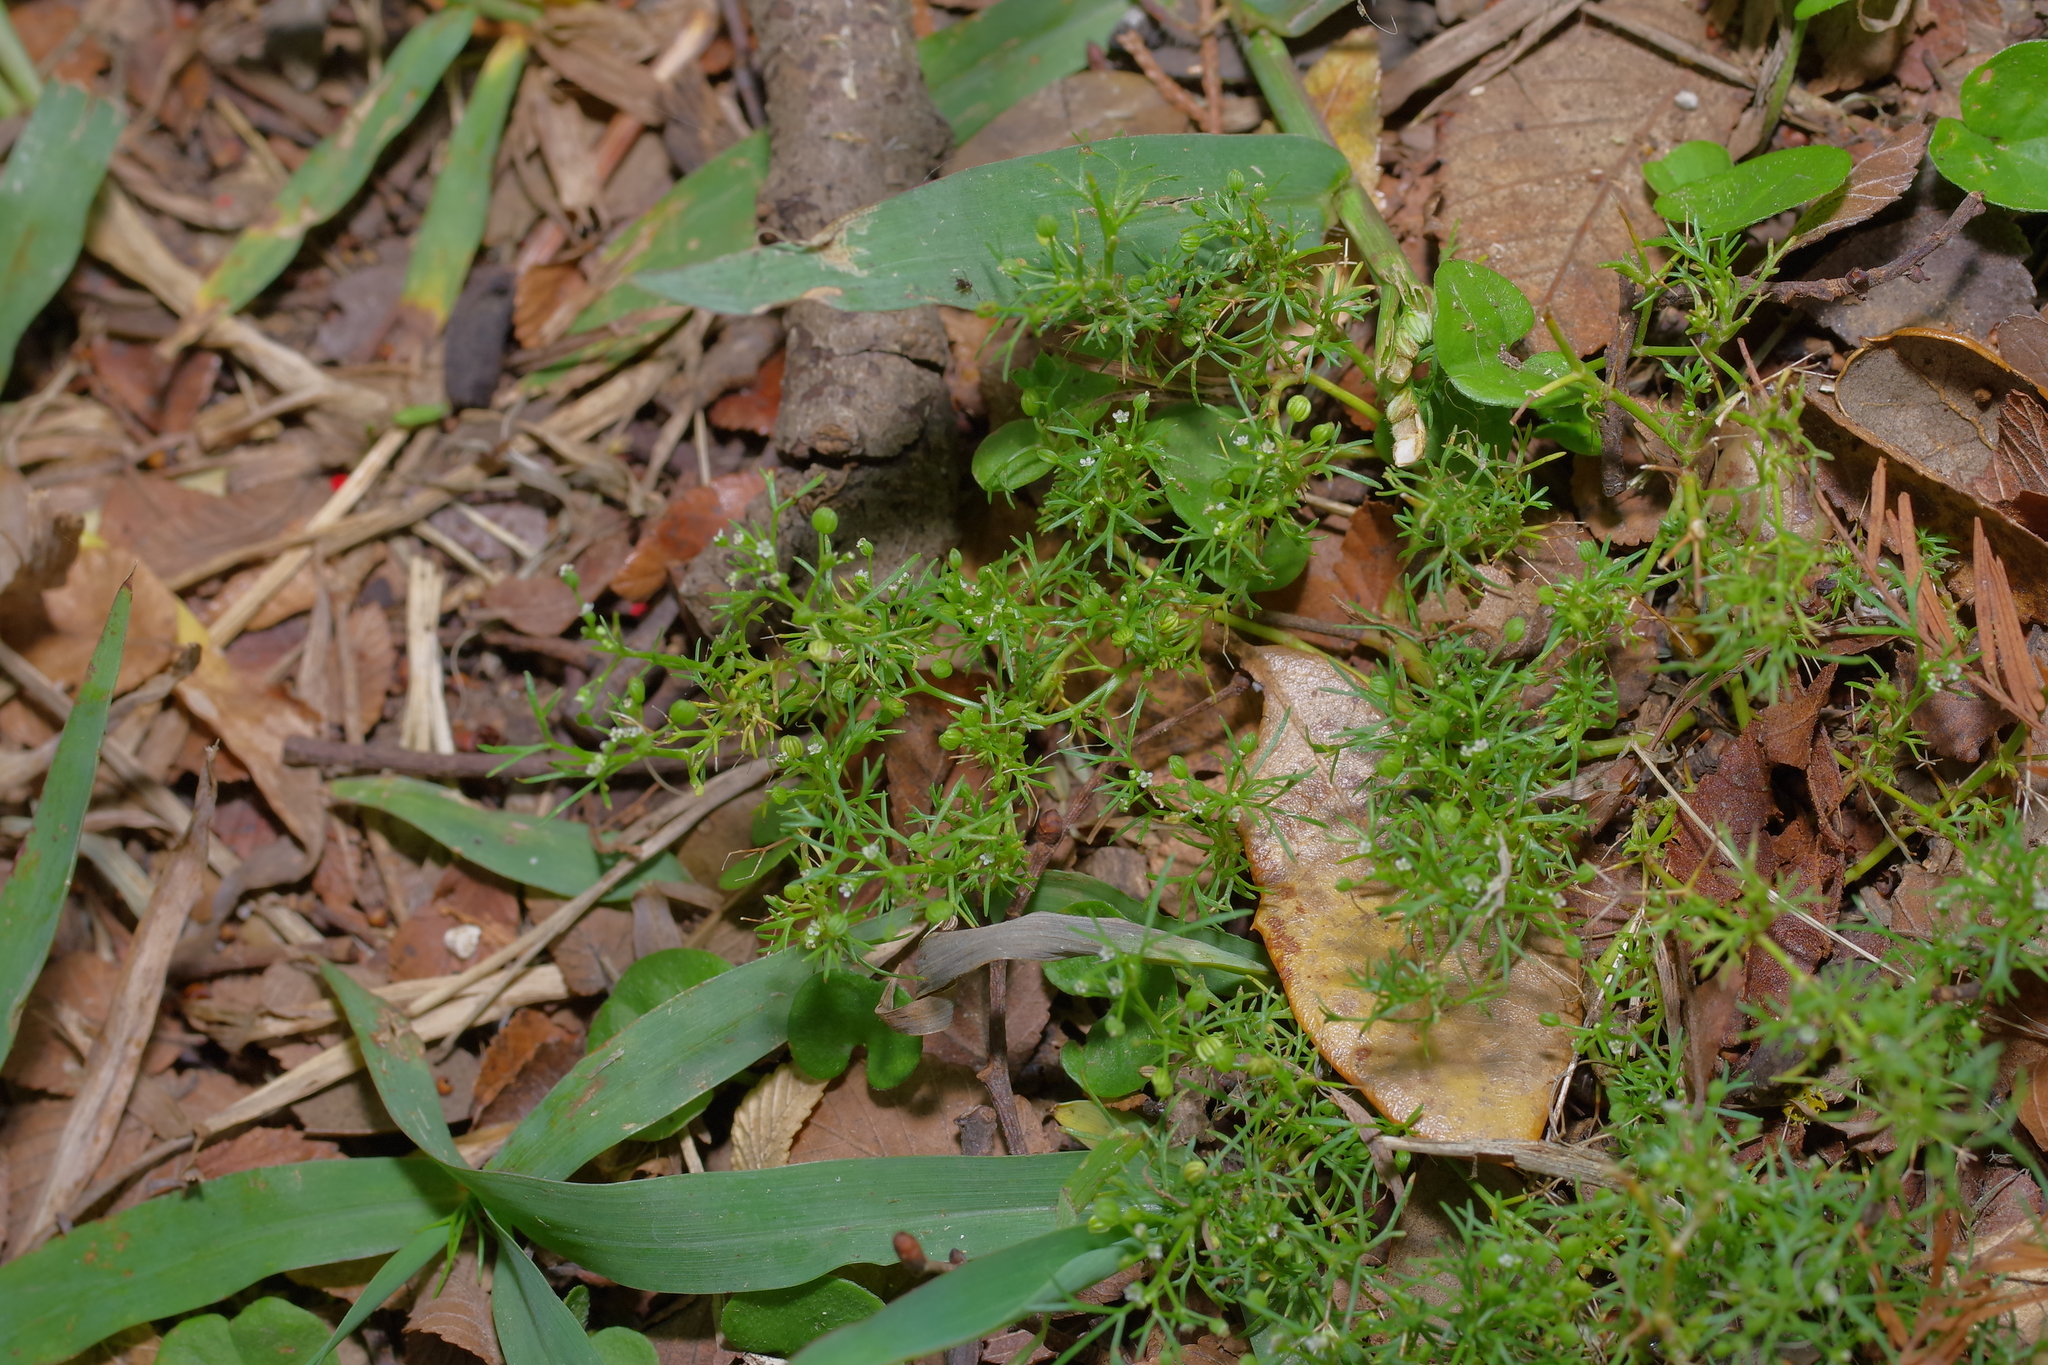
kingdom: Plantae
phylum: Tracheophyta
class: Magnoliopsida
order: Apiales
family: Apiaceae
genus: Cyclospermum
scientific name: Cyclospermum leptophyllum
